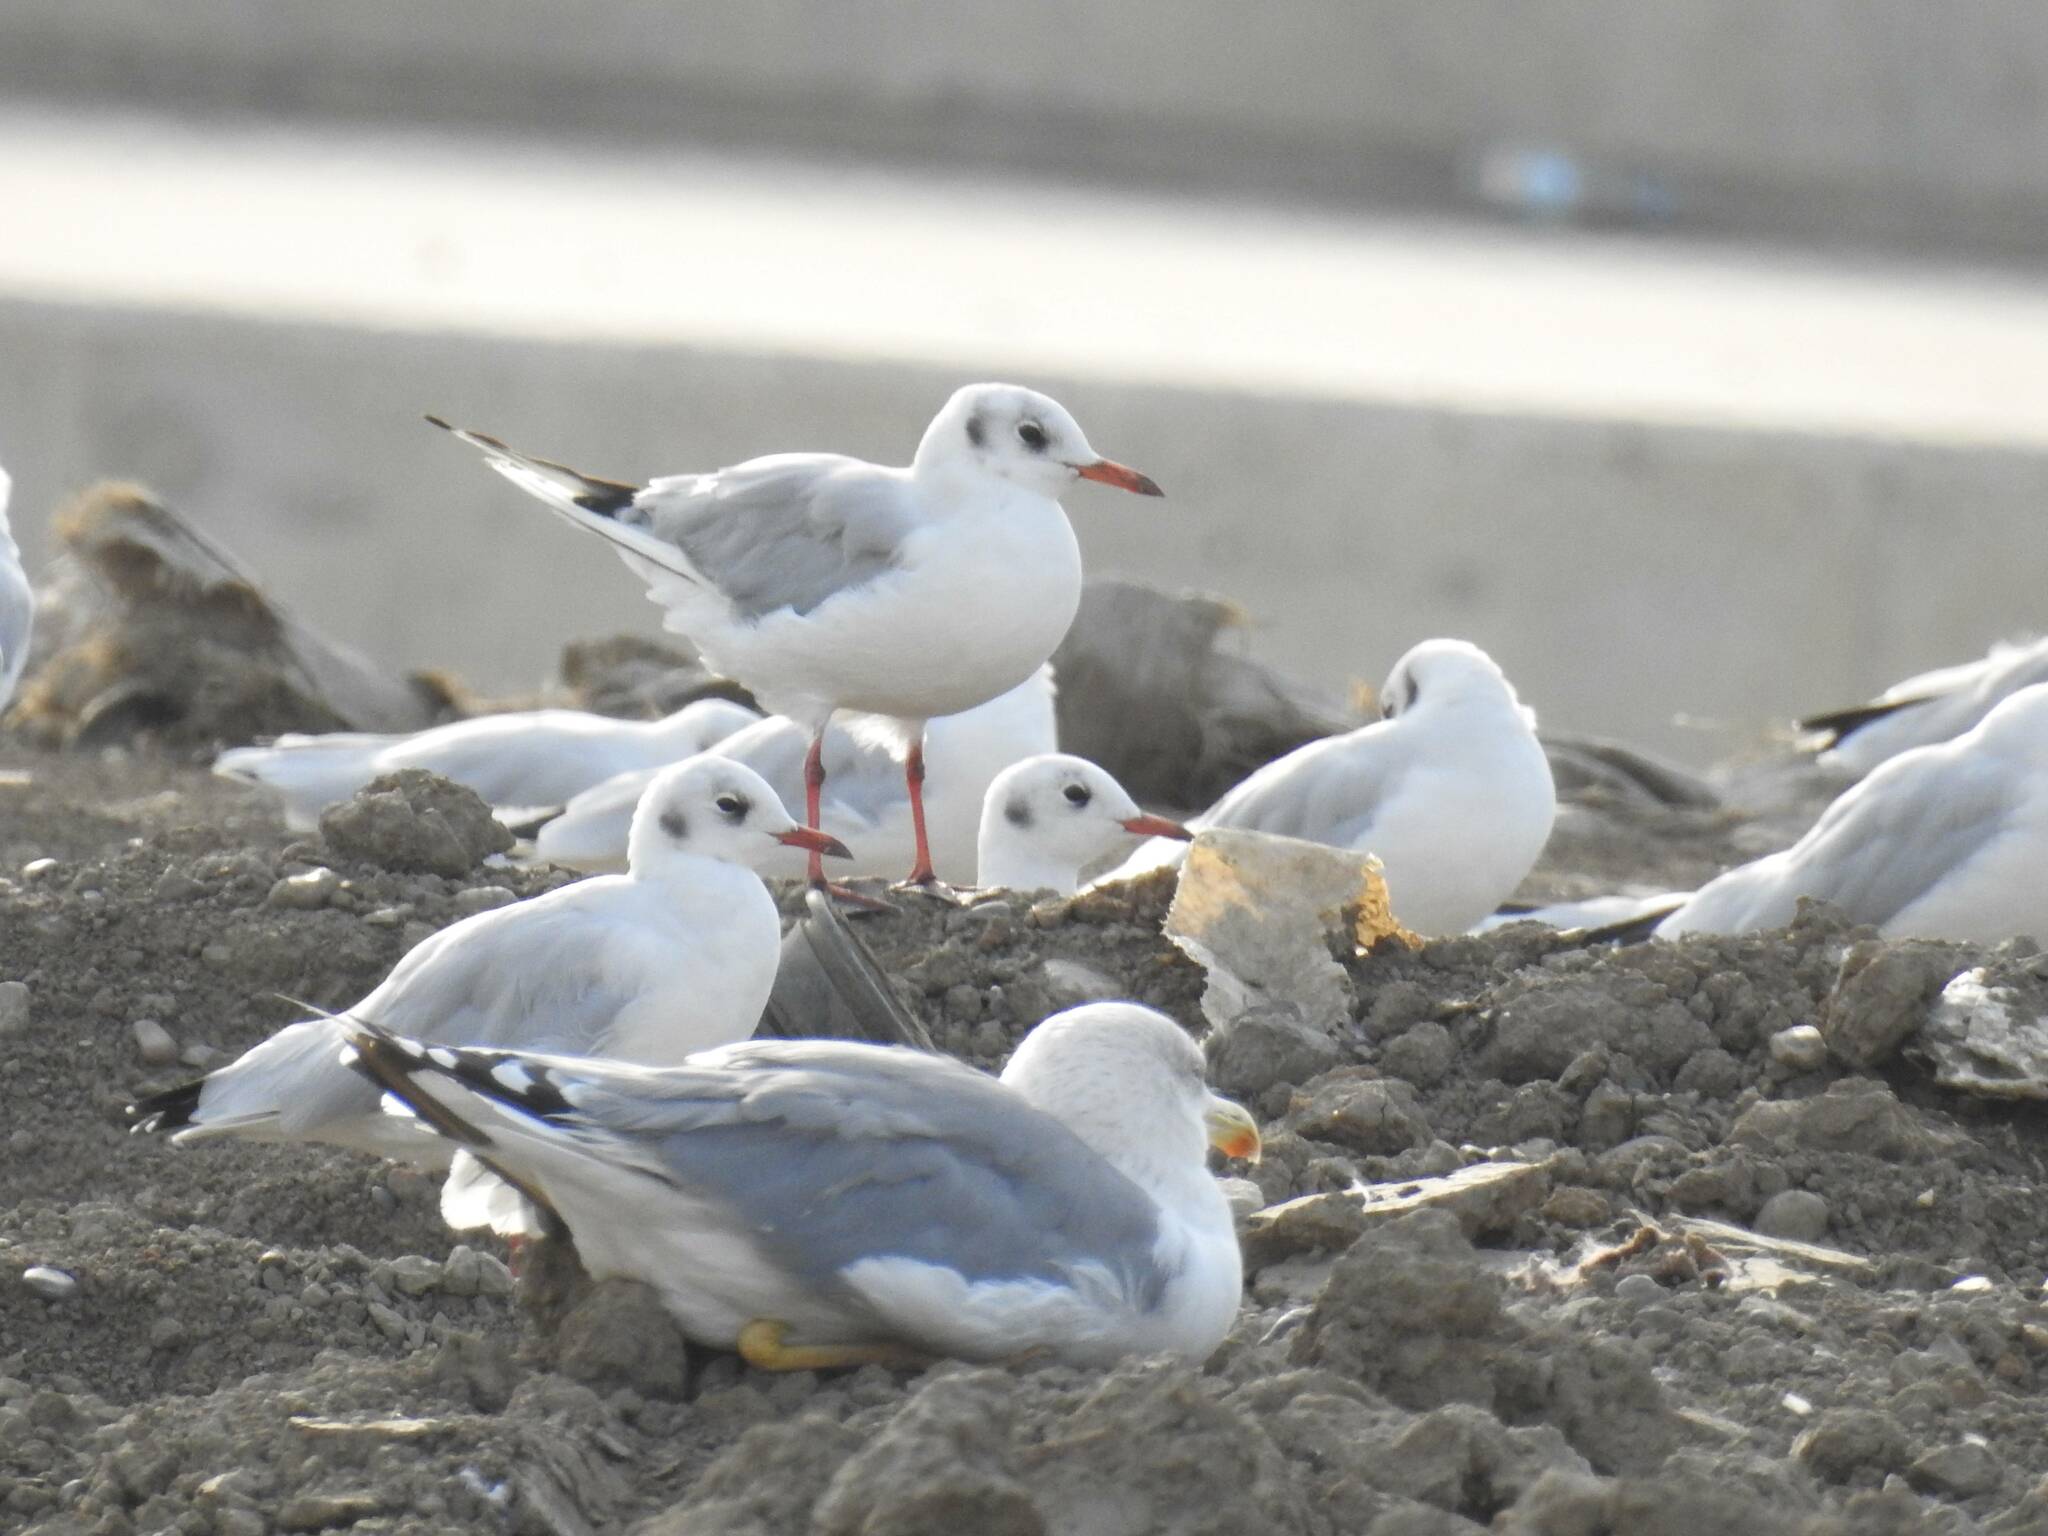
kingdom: Animalia
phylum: Chordata
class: Aves
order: Charadriiformes
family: Laridae
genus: Chroicocephalus
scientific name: Chroicocephalus ridibundus
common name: Black-headed gull
